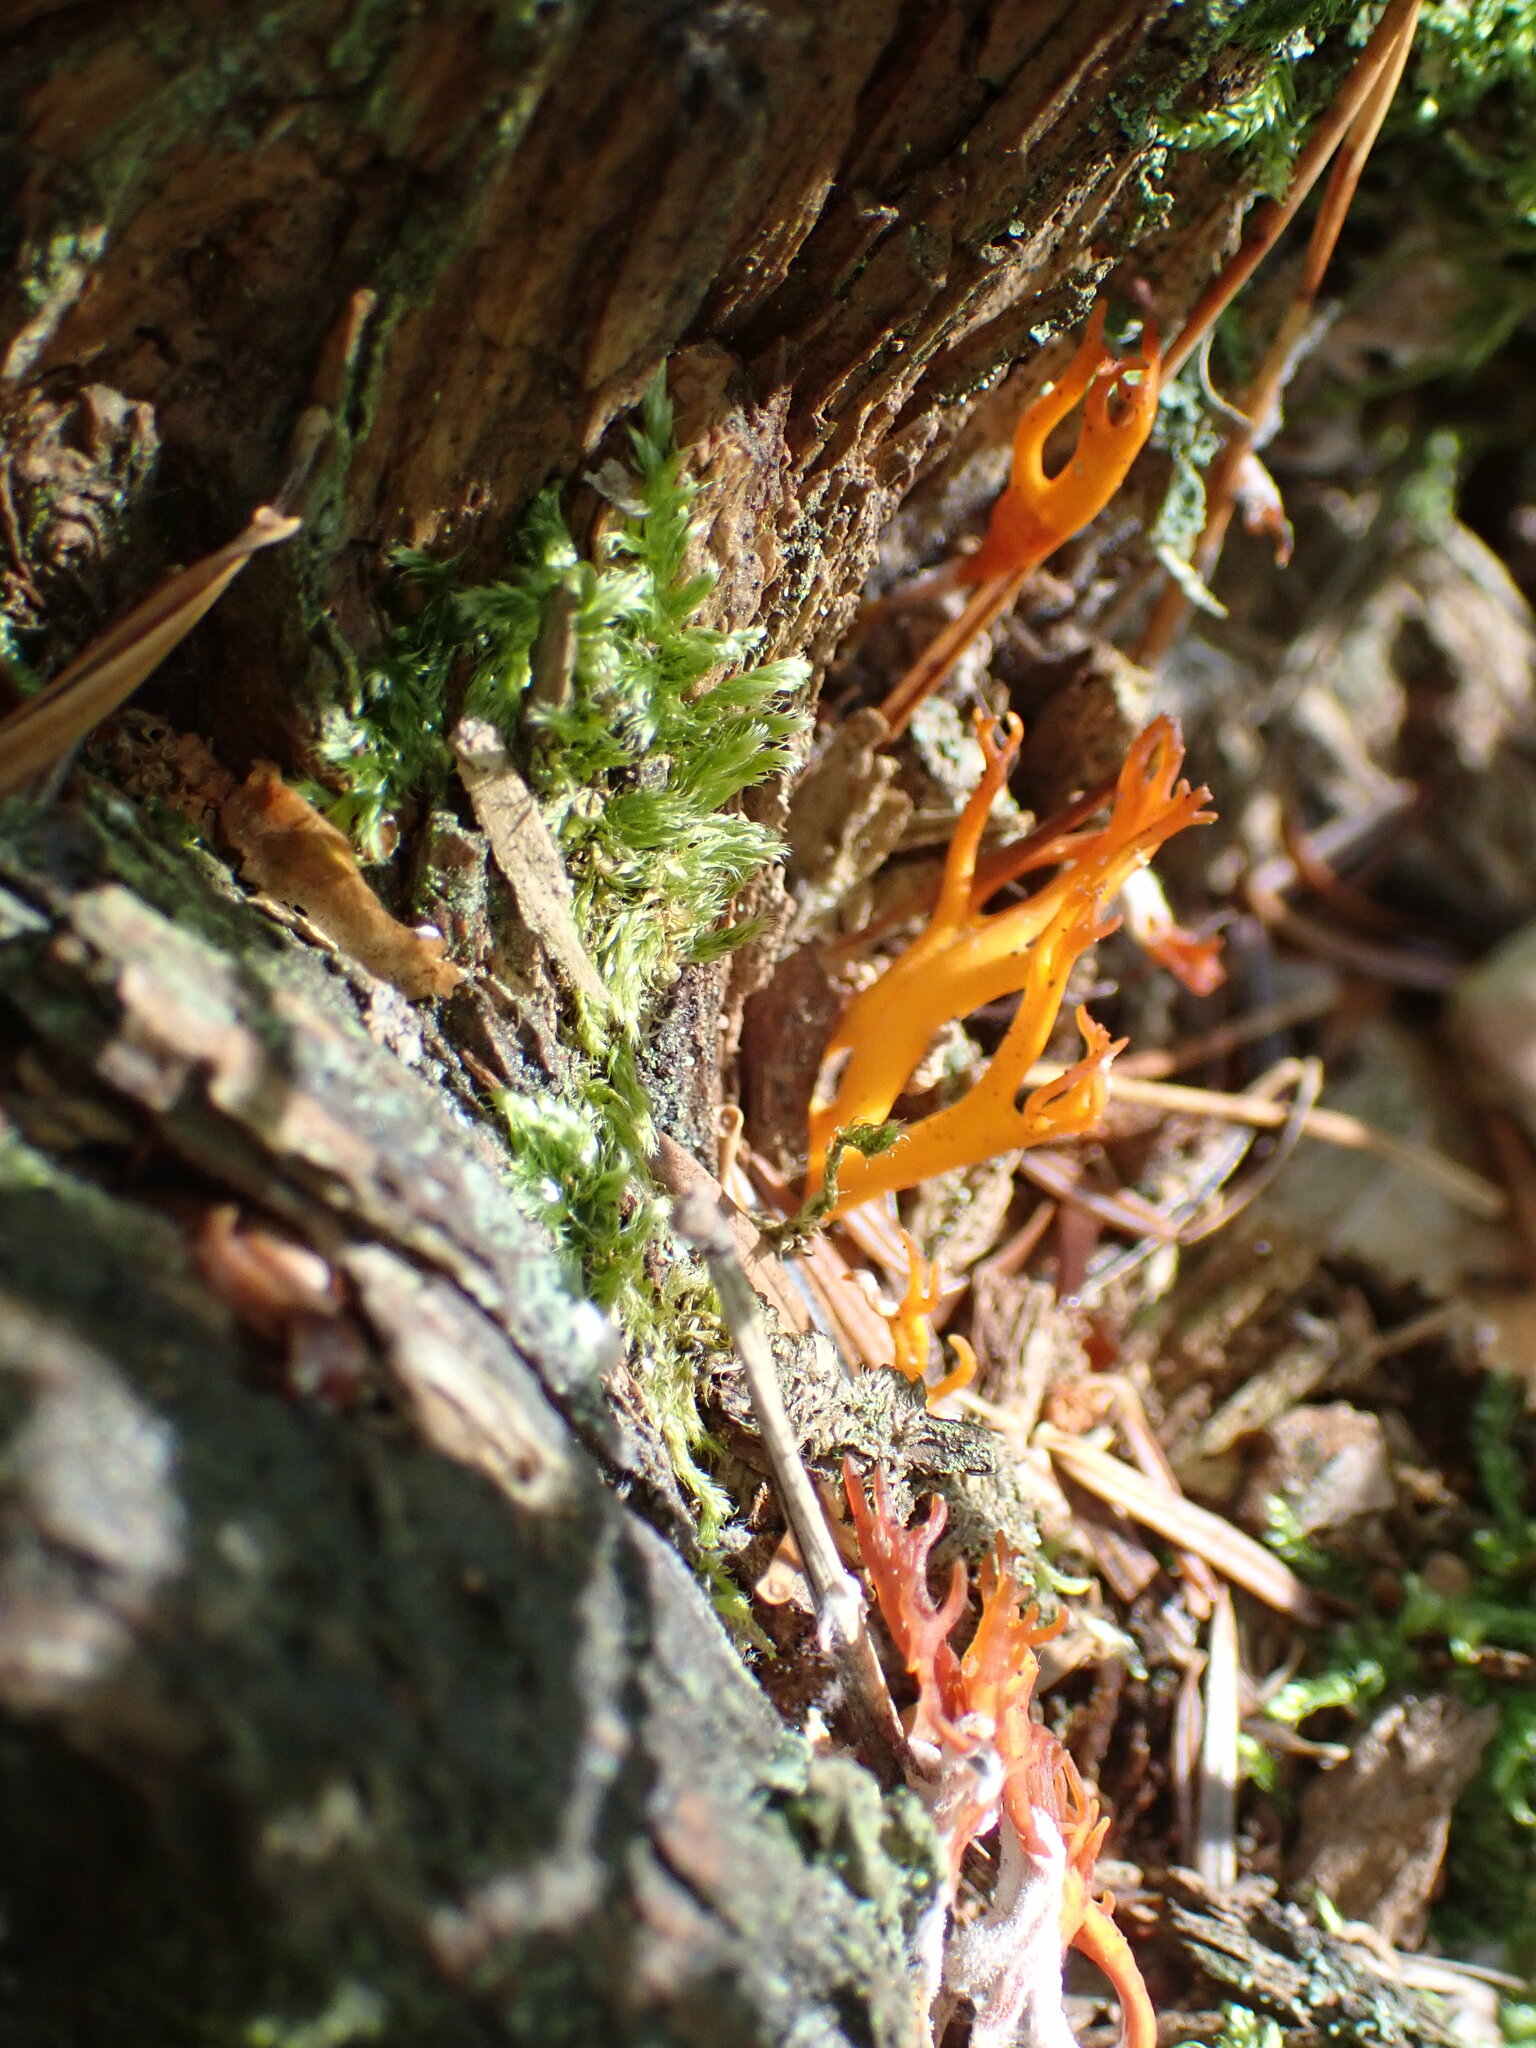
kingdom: Fungi
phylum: Basidiomycota
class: Dacrymycetes
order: Dacrymycetales
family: Dacrymycetaceae
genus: Calocera
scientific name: Calocera viscosa
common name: Yellow stagshorn
